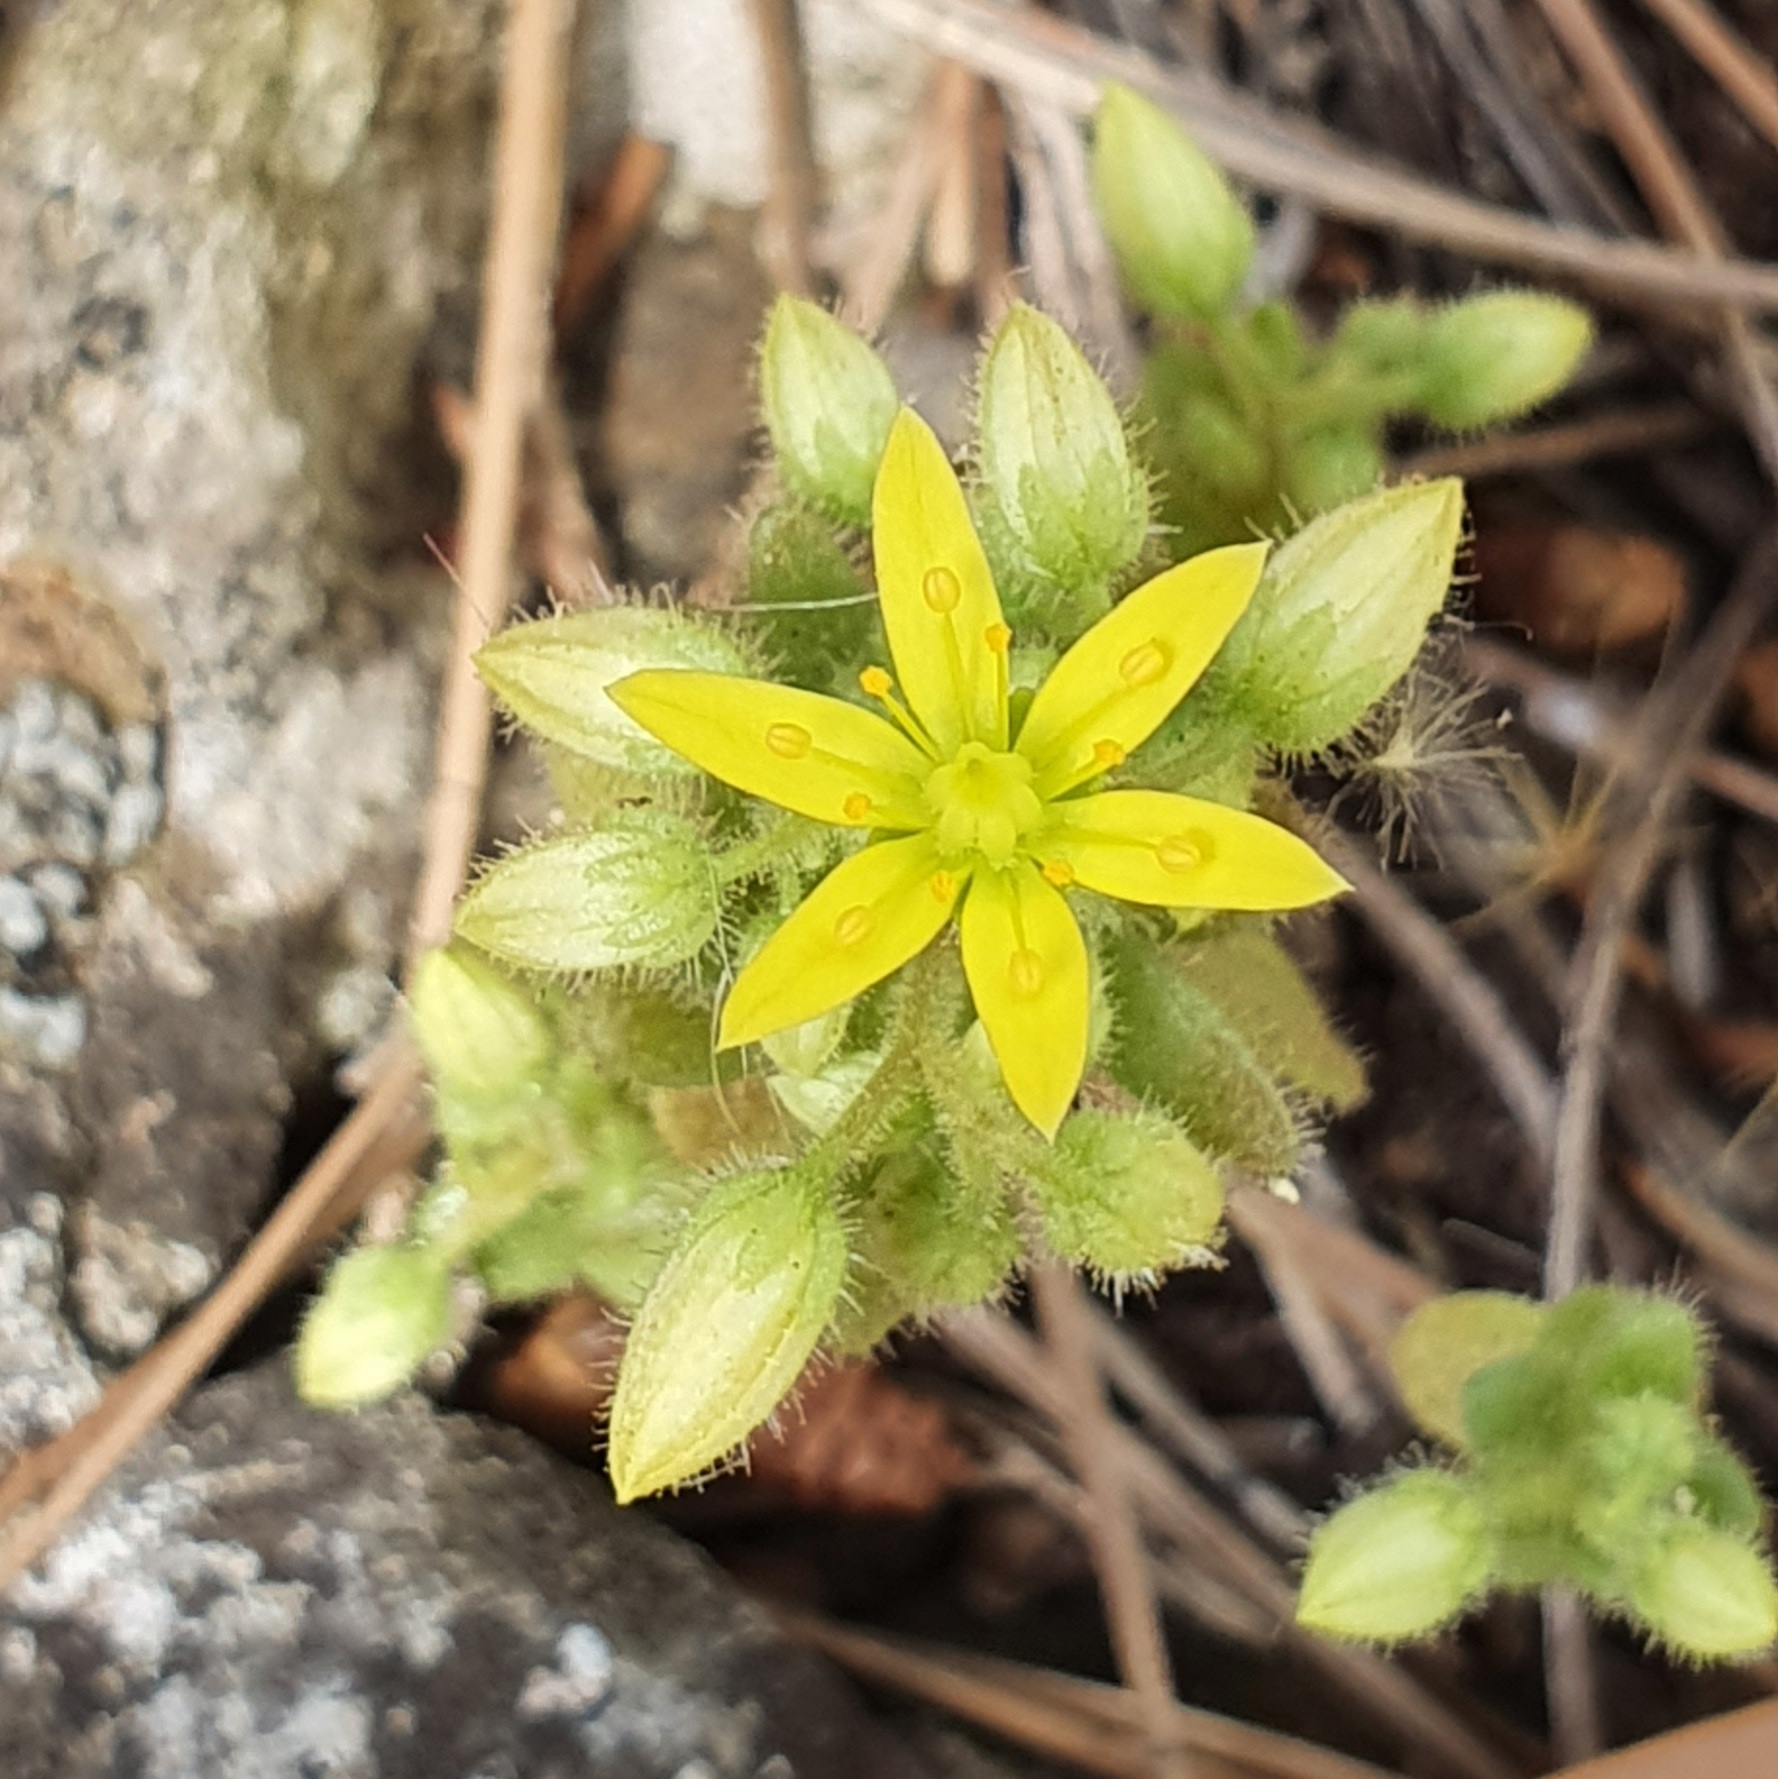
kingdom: Plantae
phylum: Tracheophyta
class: Magnoliopsida
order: Saxifragales
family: Crassulaceae
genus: Sedum
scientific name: Sedum pubescens
